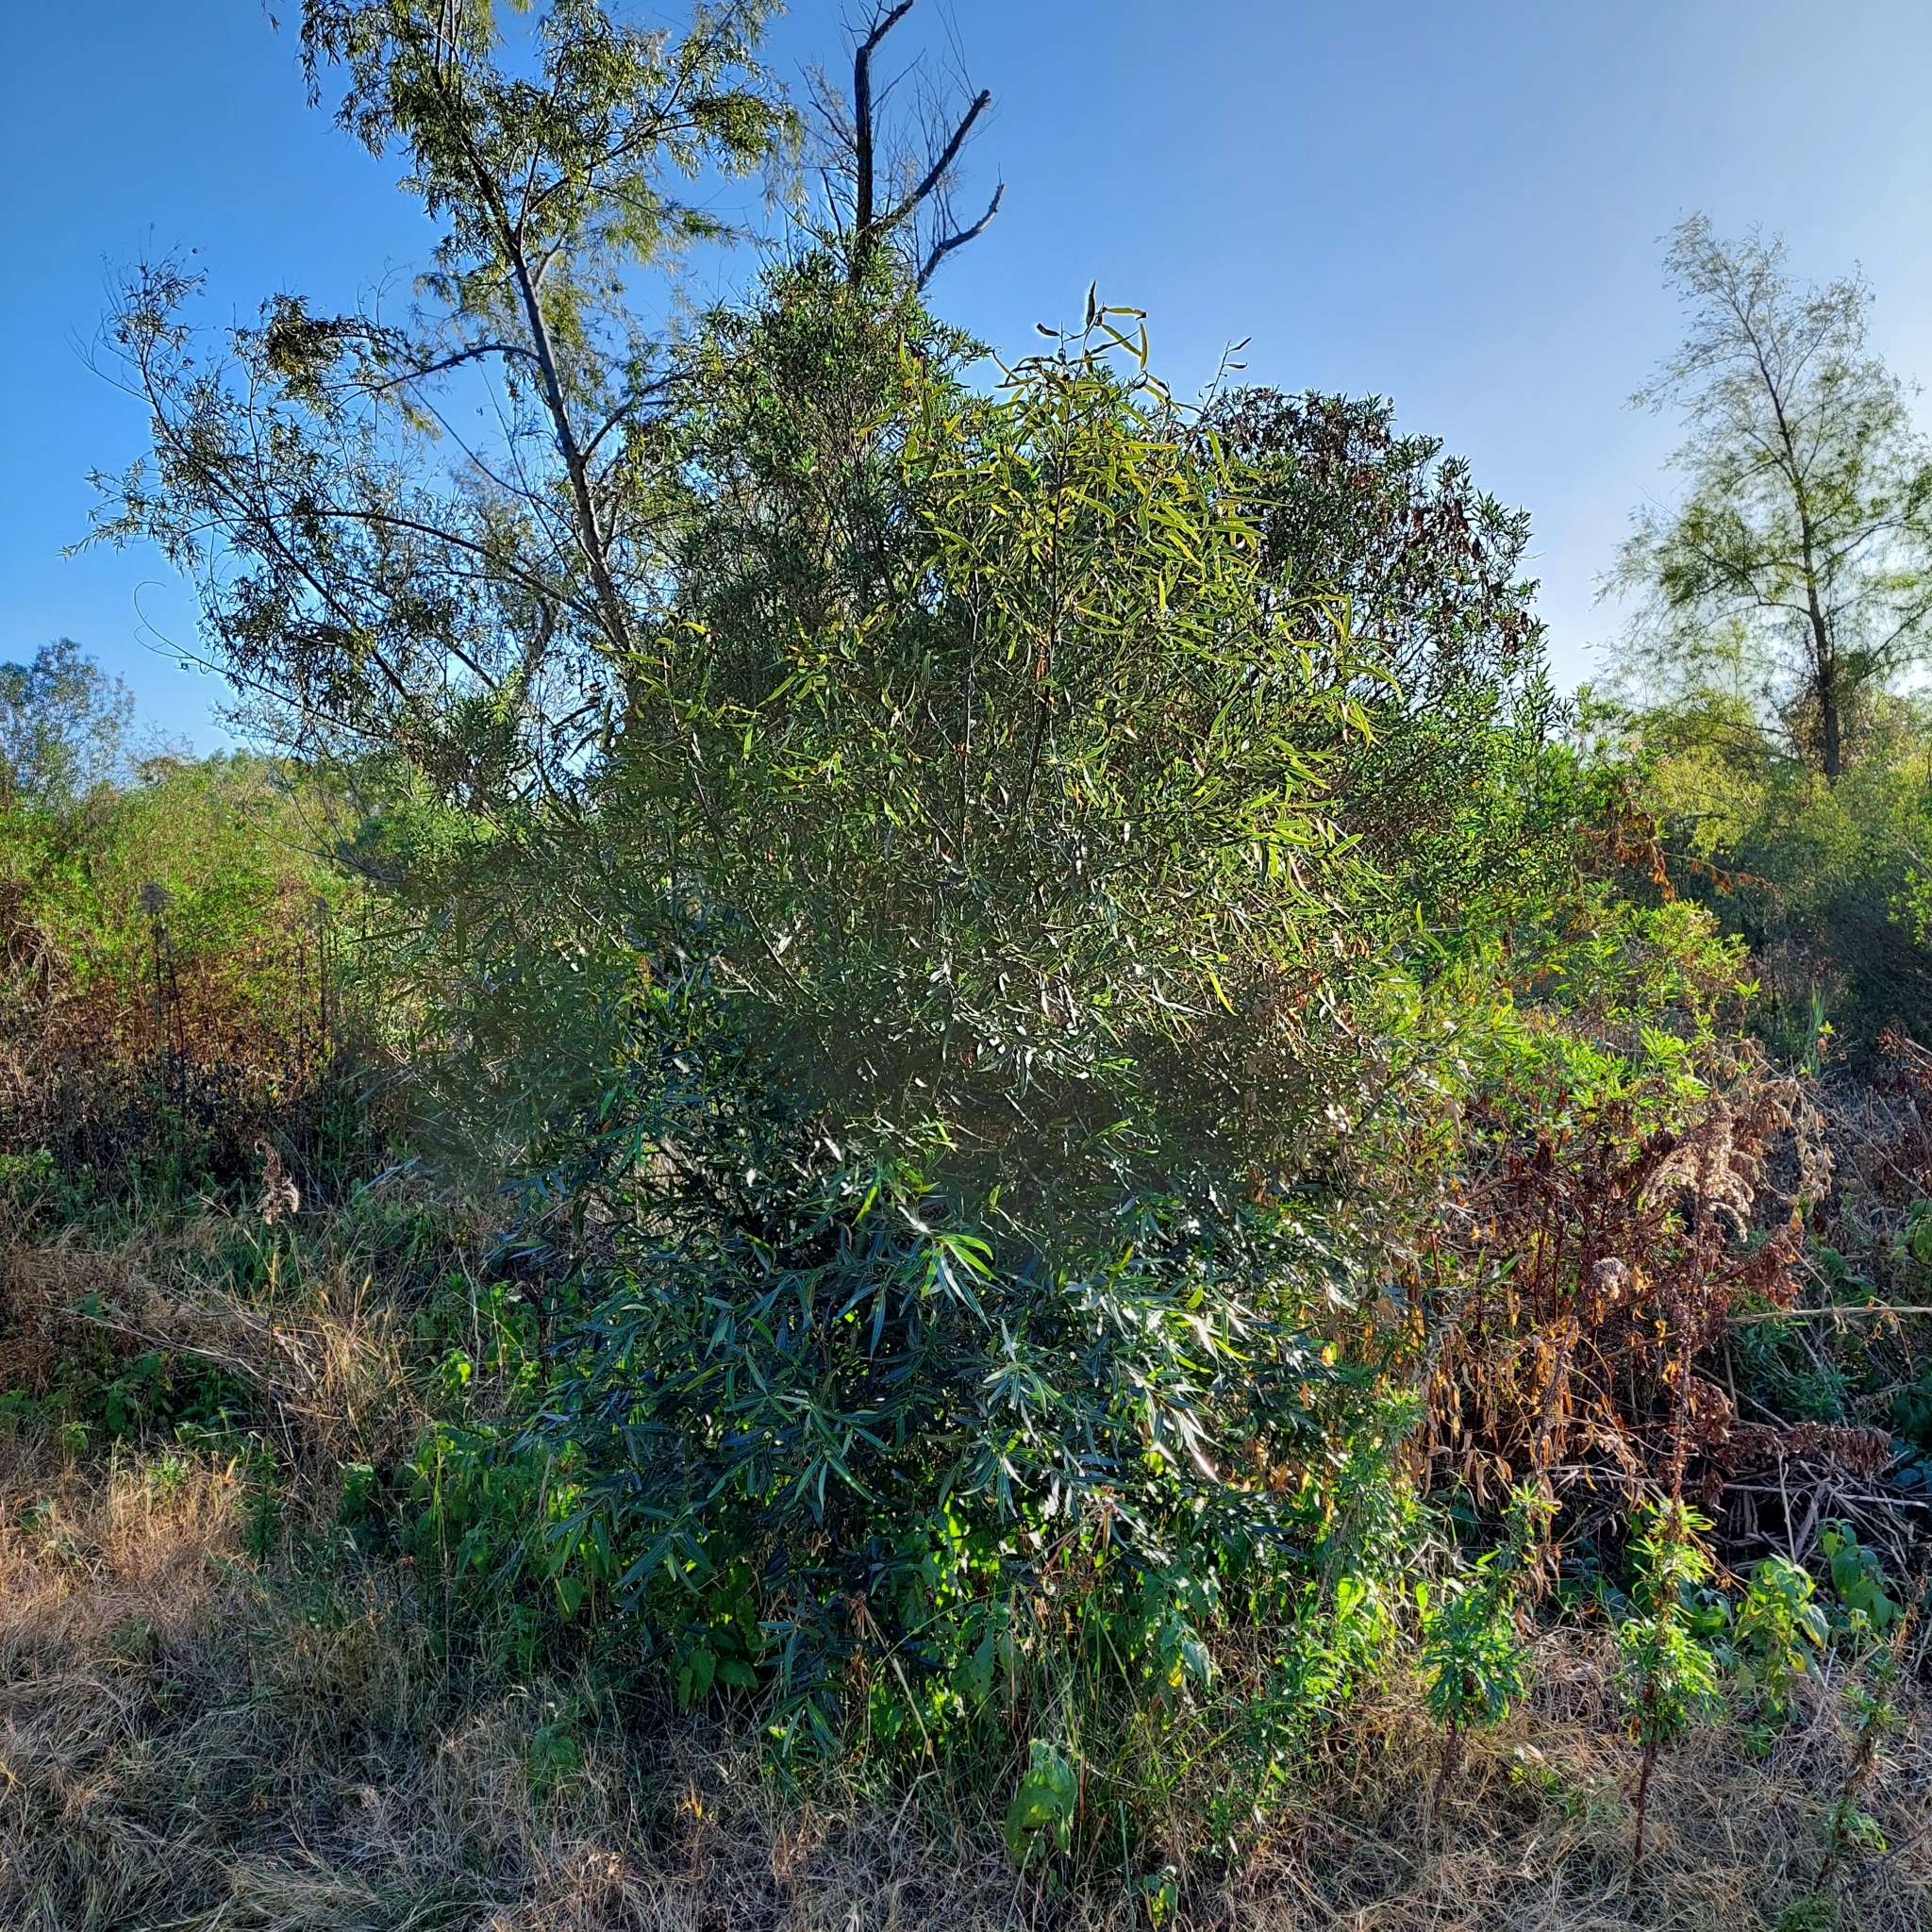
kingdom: Plantae
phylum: Tracheophyta
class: Magnoliopsida
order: Laurales
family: Lauraceae
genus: Nectandra
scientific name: Nectandra angustifolia
